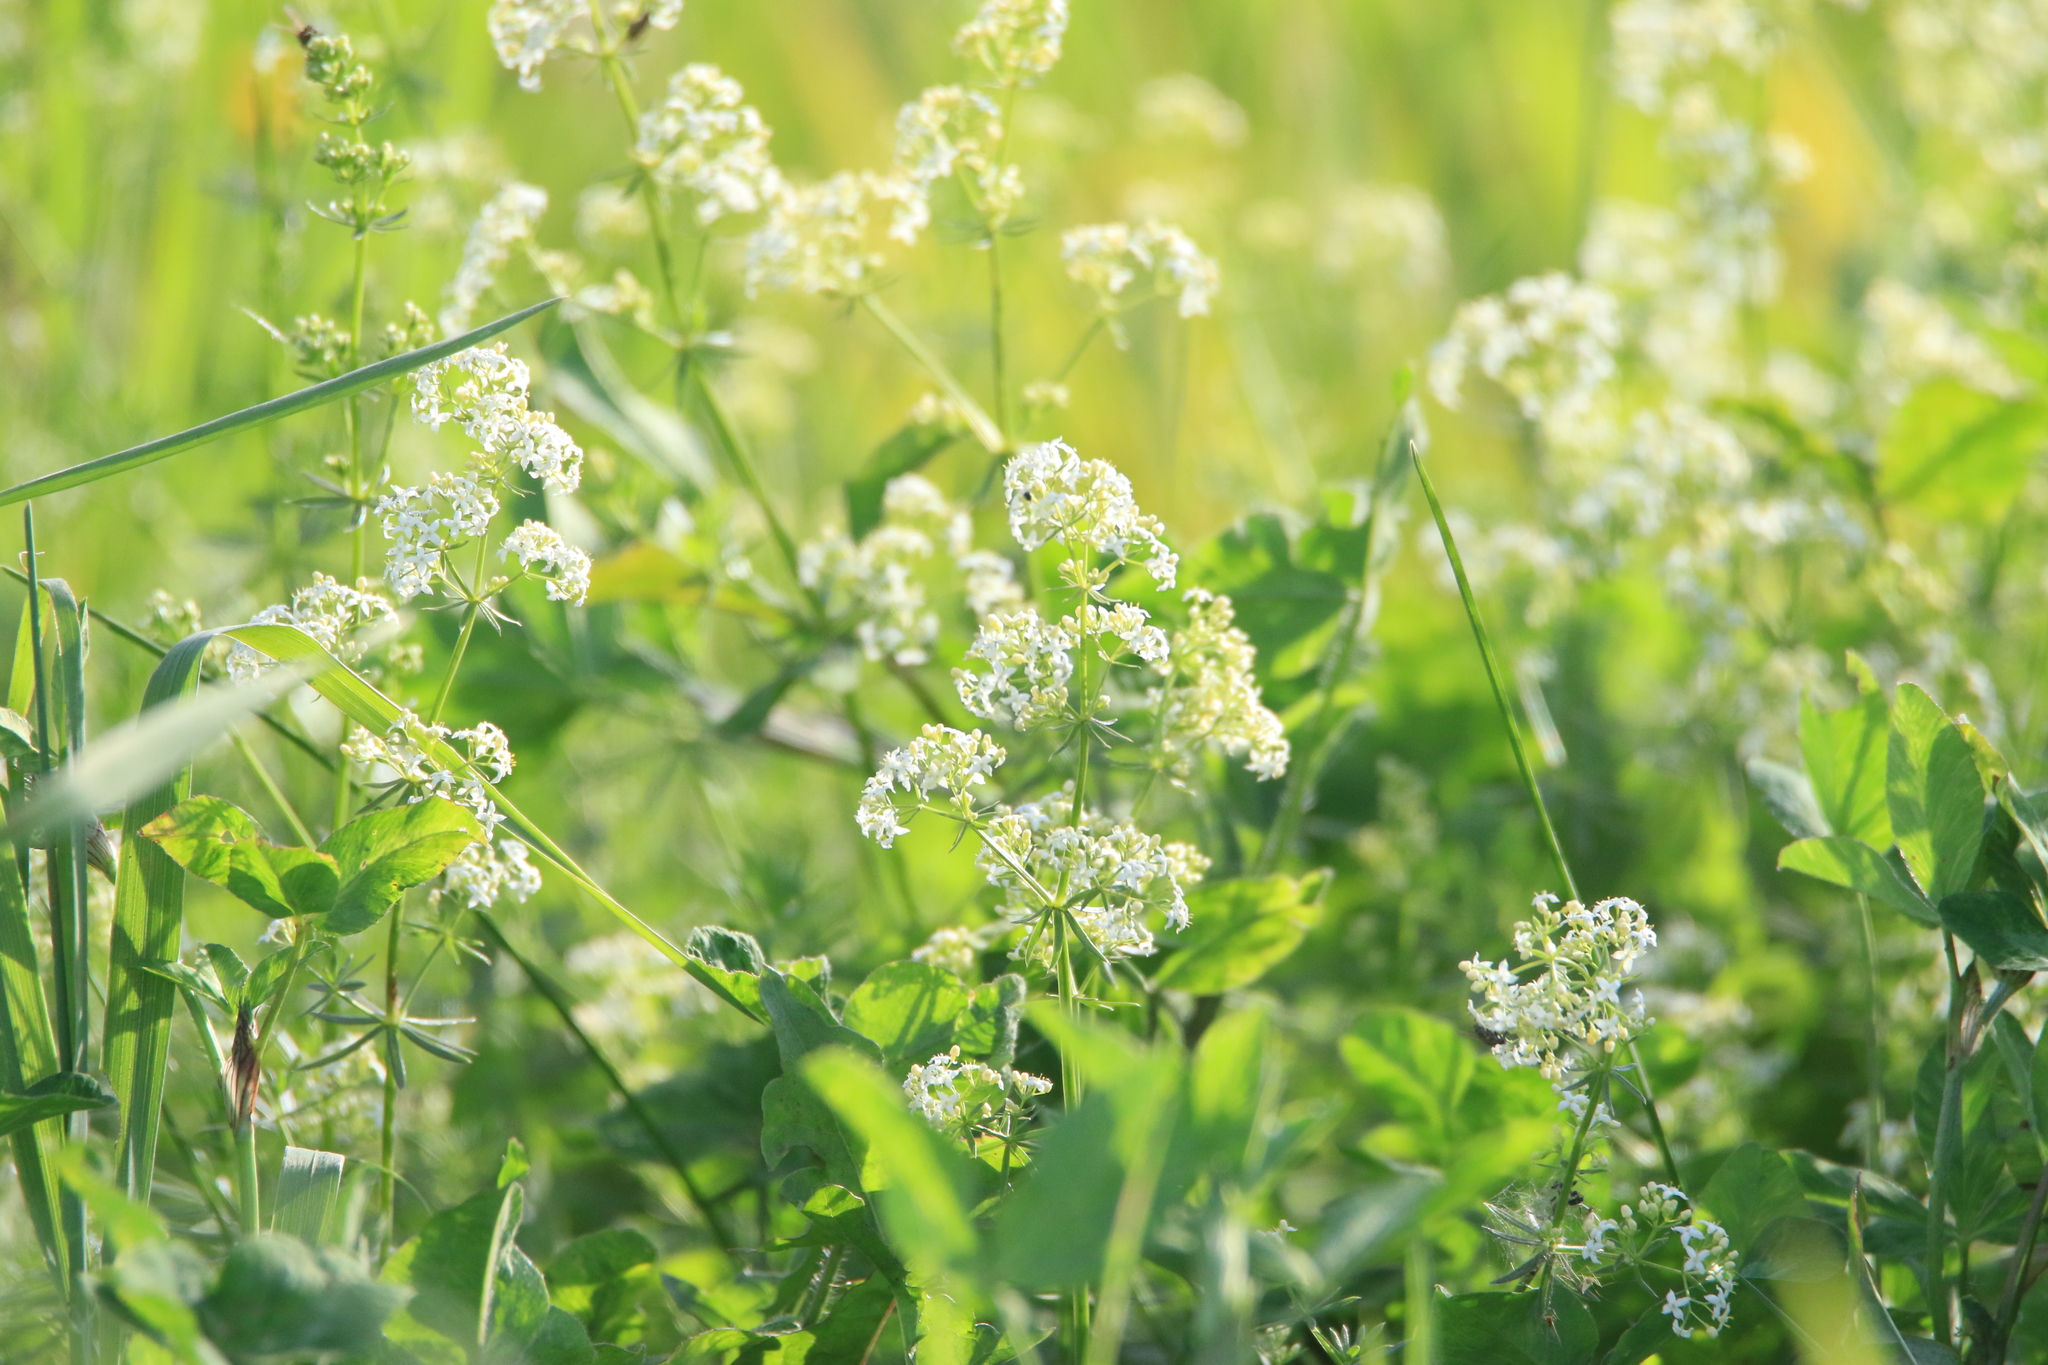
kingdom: Plantae
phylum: Tracheophyta
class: Magnoliopsida
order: Gentianales
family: Rubiaceae
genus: Galium
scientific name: Galium mollugo
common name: Hedge bedstraw
